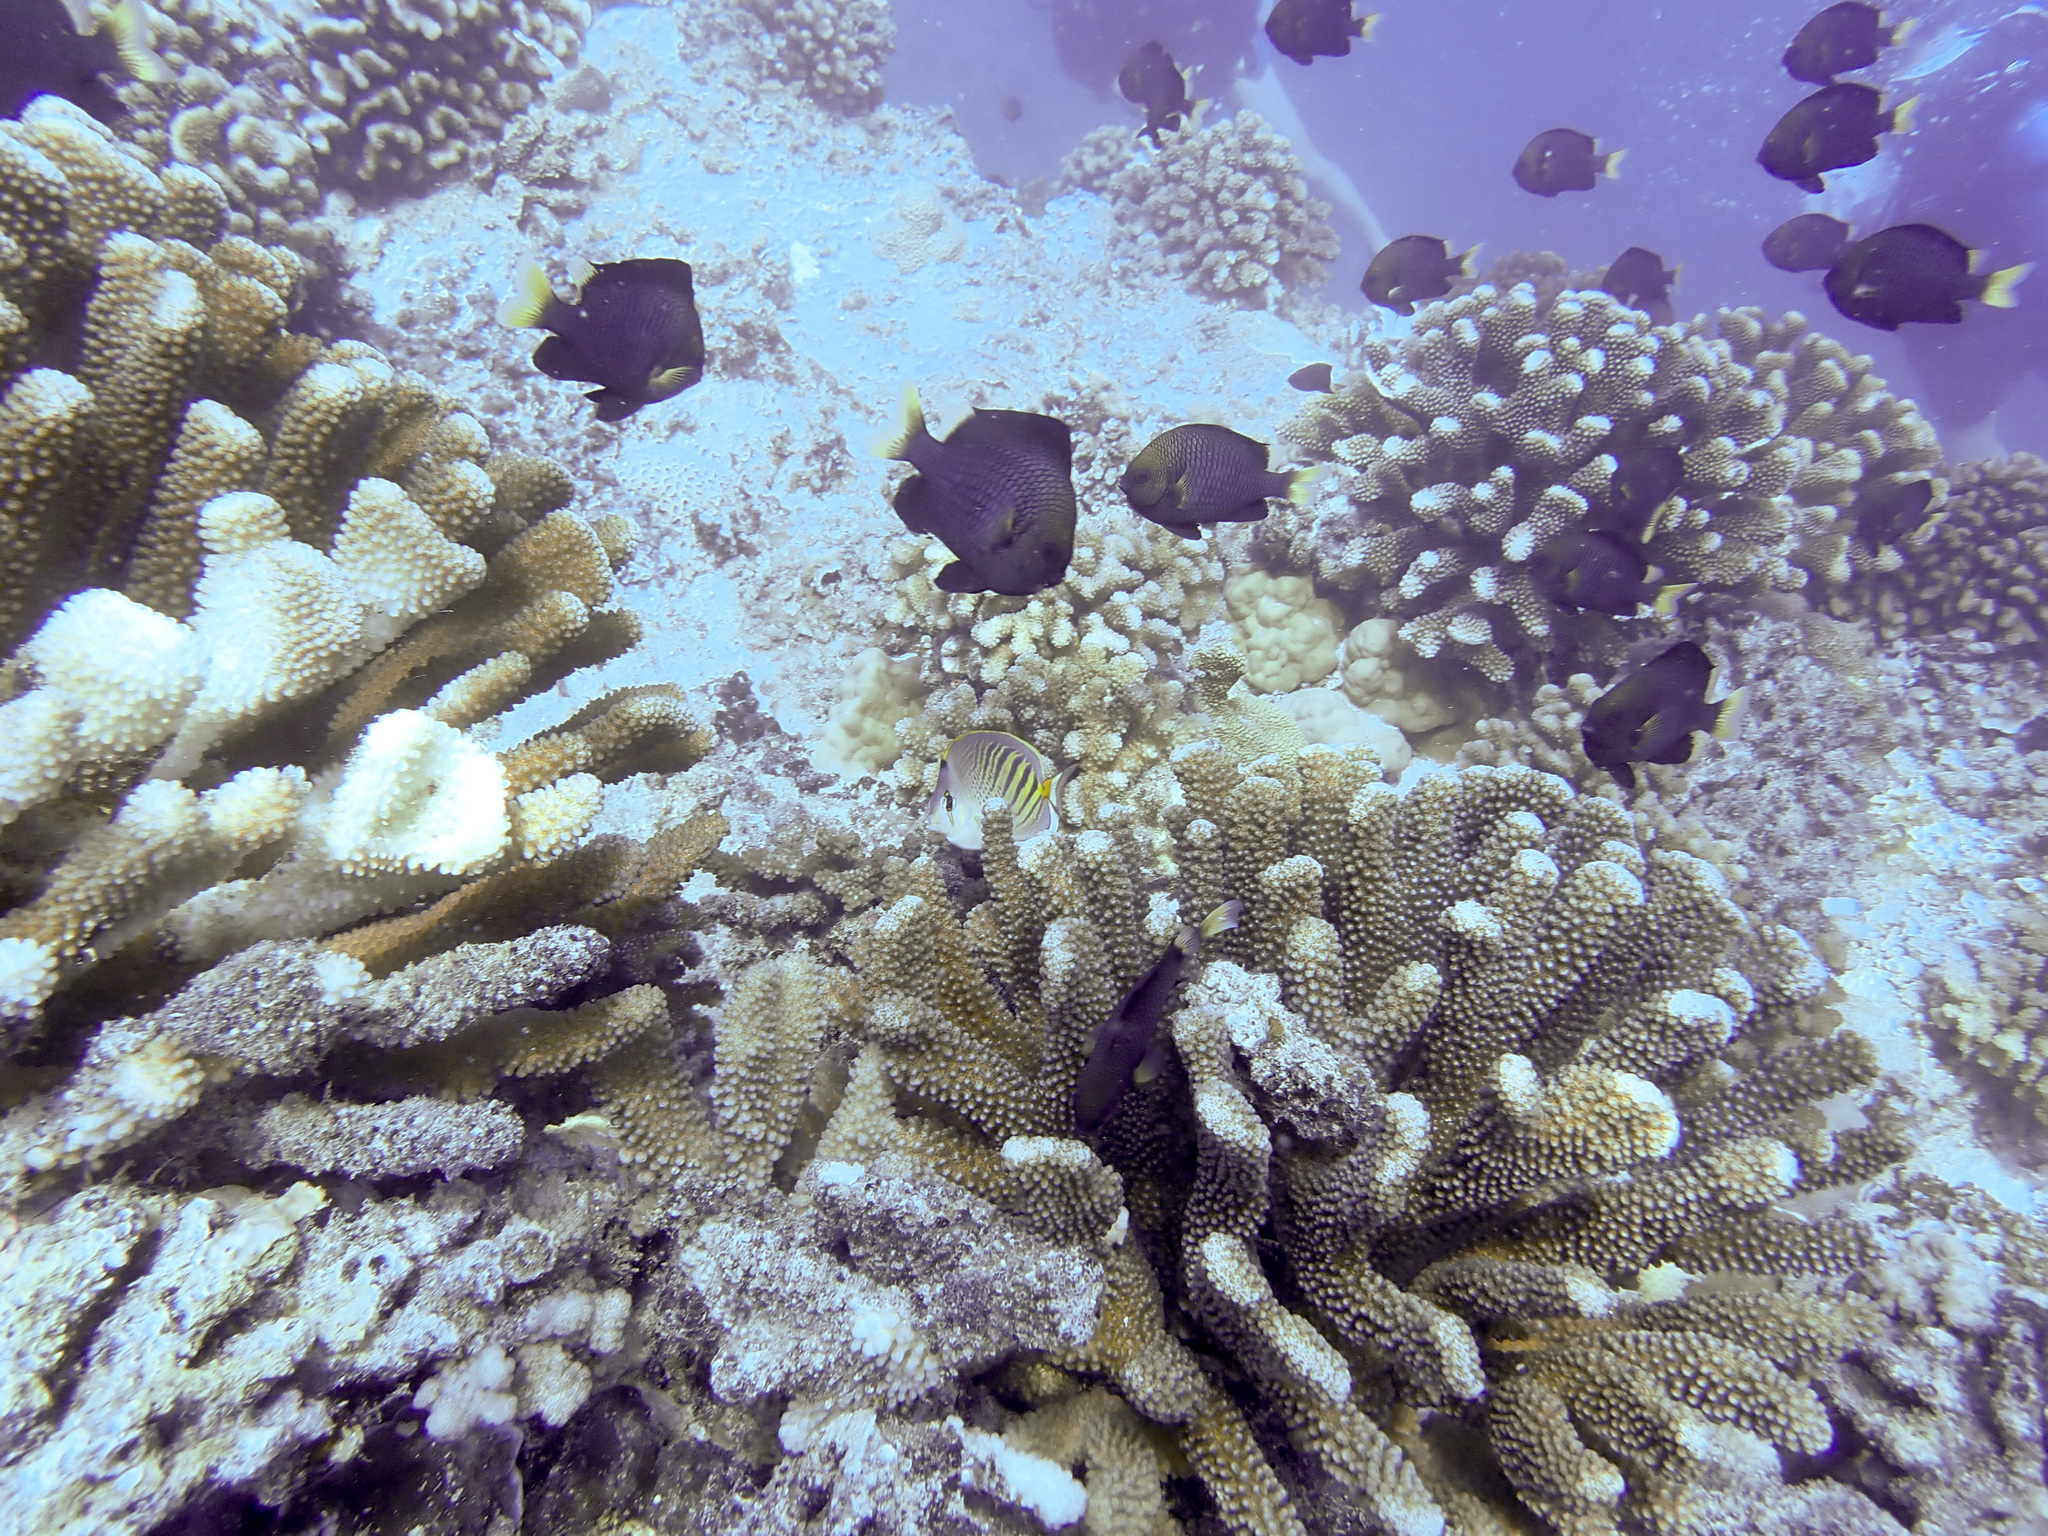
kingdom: Animalia
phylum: Chordata
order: Perciformes
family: Pomacentridae
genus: Dascyllus
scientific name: Dascyllus flavicaudus
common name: Yellow-tailed dascyllus
